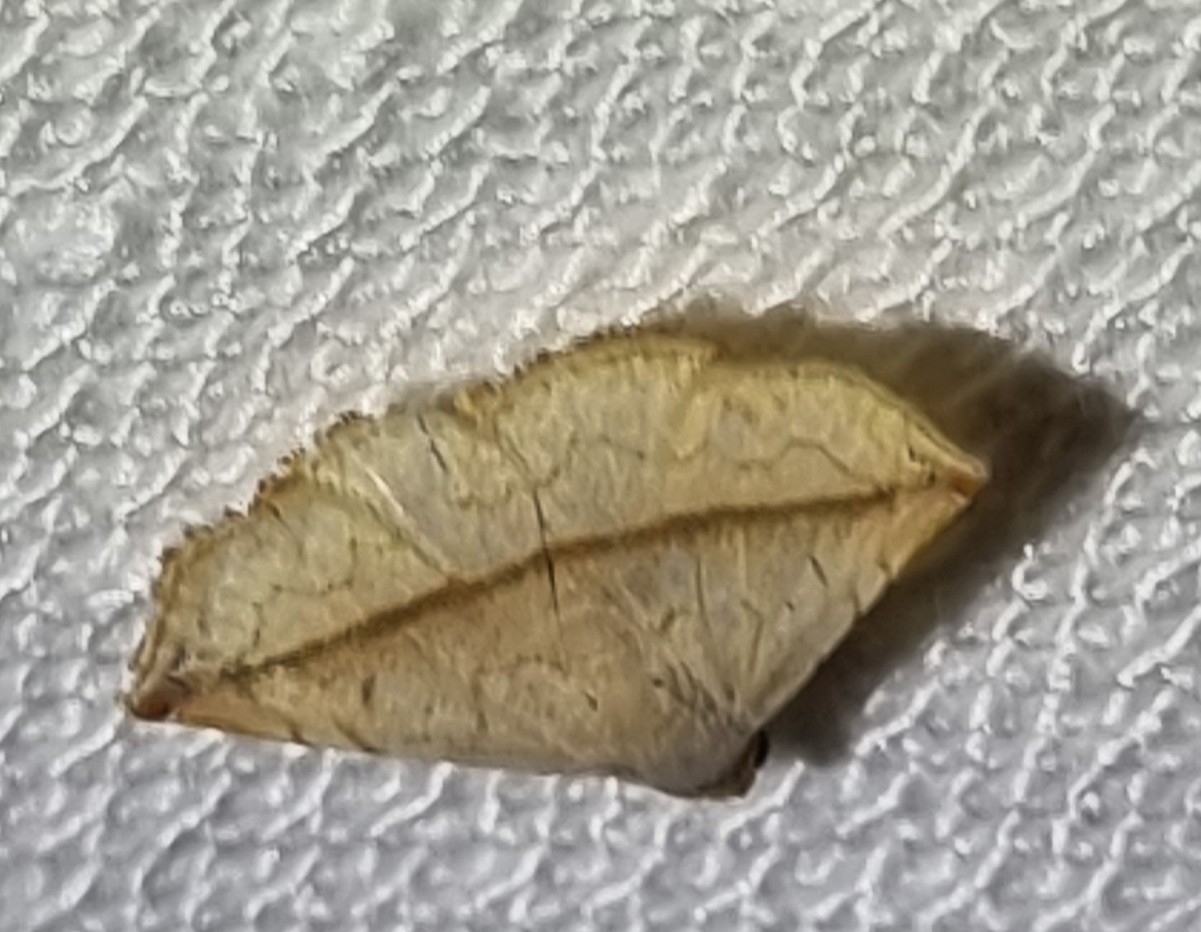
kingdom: Animalia
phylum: Arthropoda
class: Insecta
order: Lepidoptera
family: Noctuidae
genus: Eublemma
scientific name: Eublemma perversicolor
